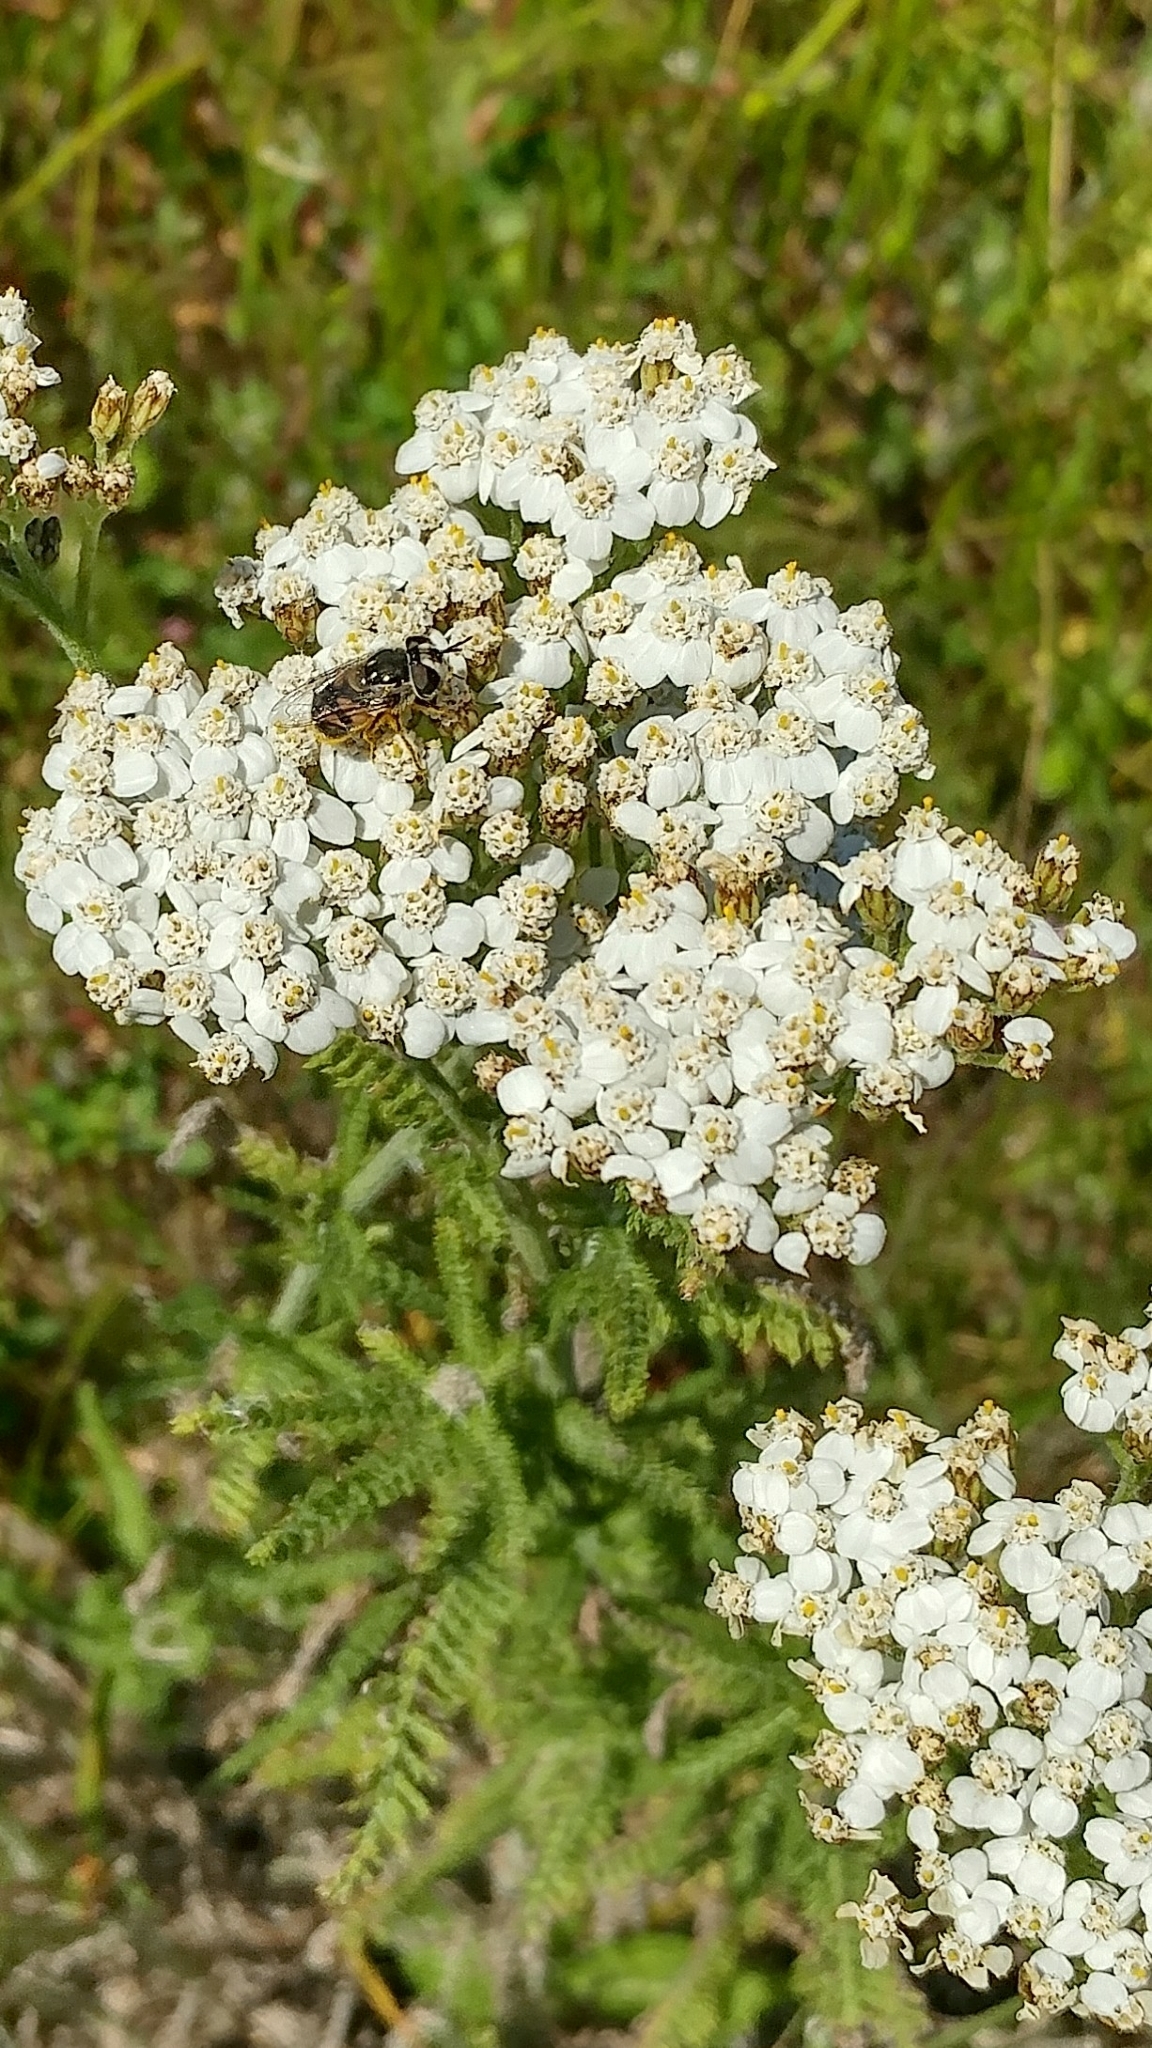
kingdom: Animalia
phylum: Arthropoda
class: Insecta
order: Diptera
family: Syrphidae
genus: Copestylum
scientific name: Copestylum lentum
